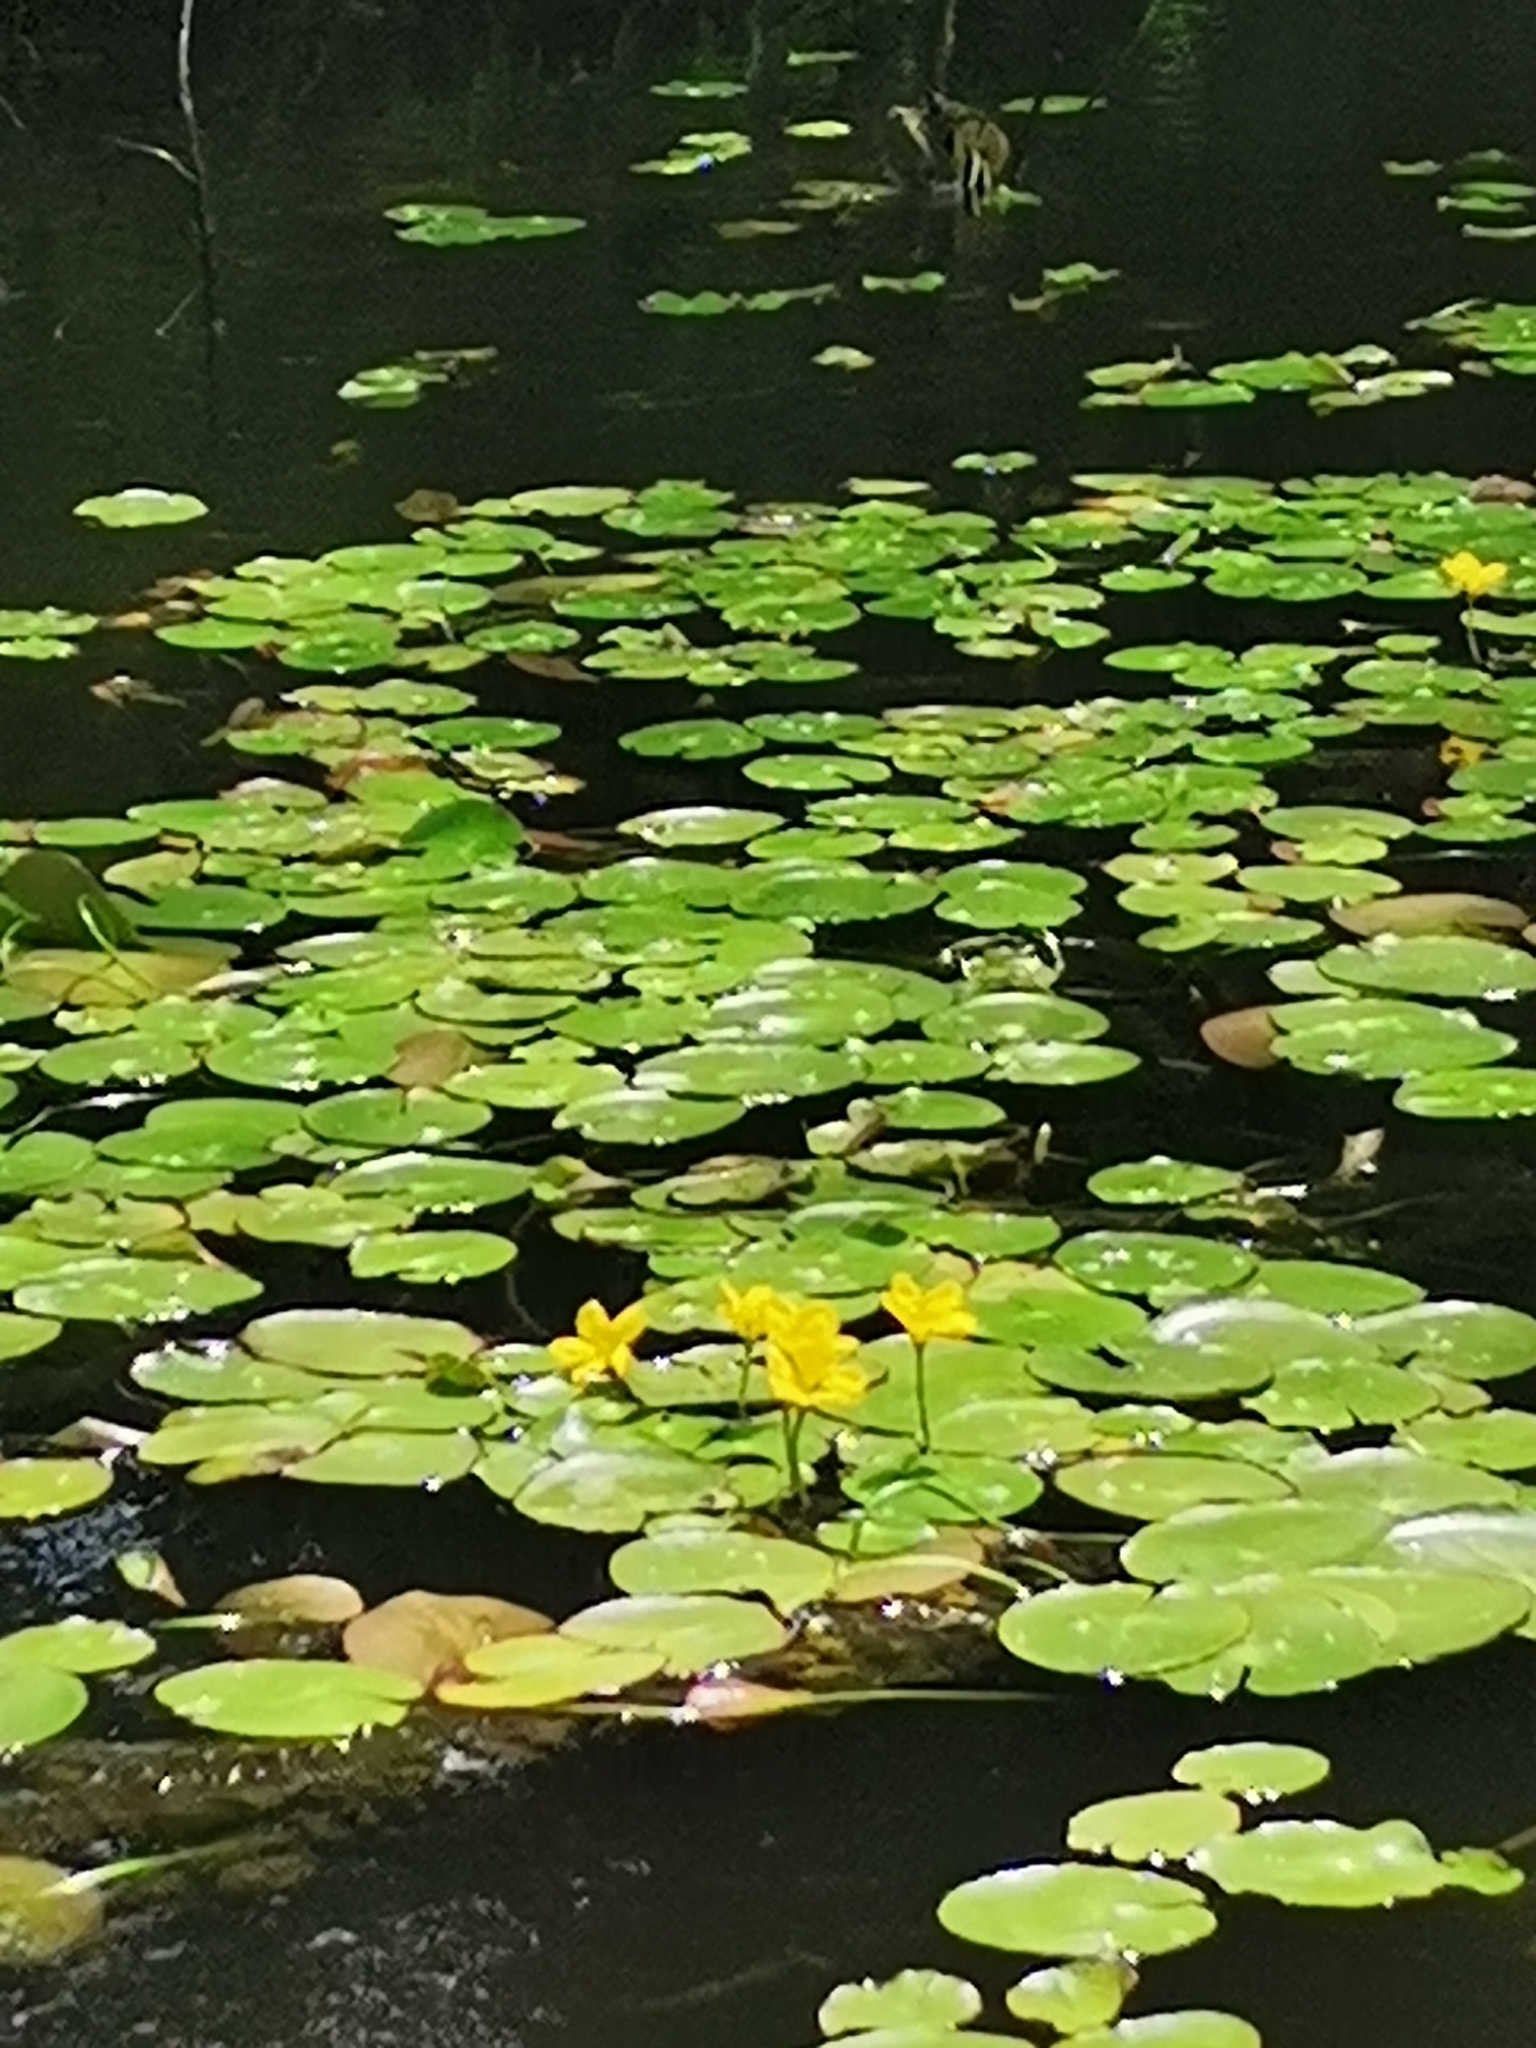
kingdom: Plantae
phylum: Tracheophyta
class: Magnoliopsida
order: Asterales
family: Menyanthaceae
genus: Nymphoides
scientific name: Nymphoides peltata
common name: Fringed water-lily
